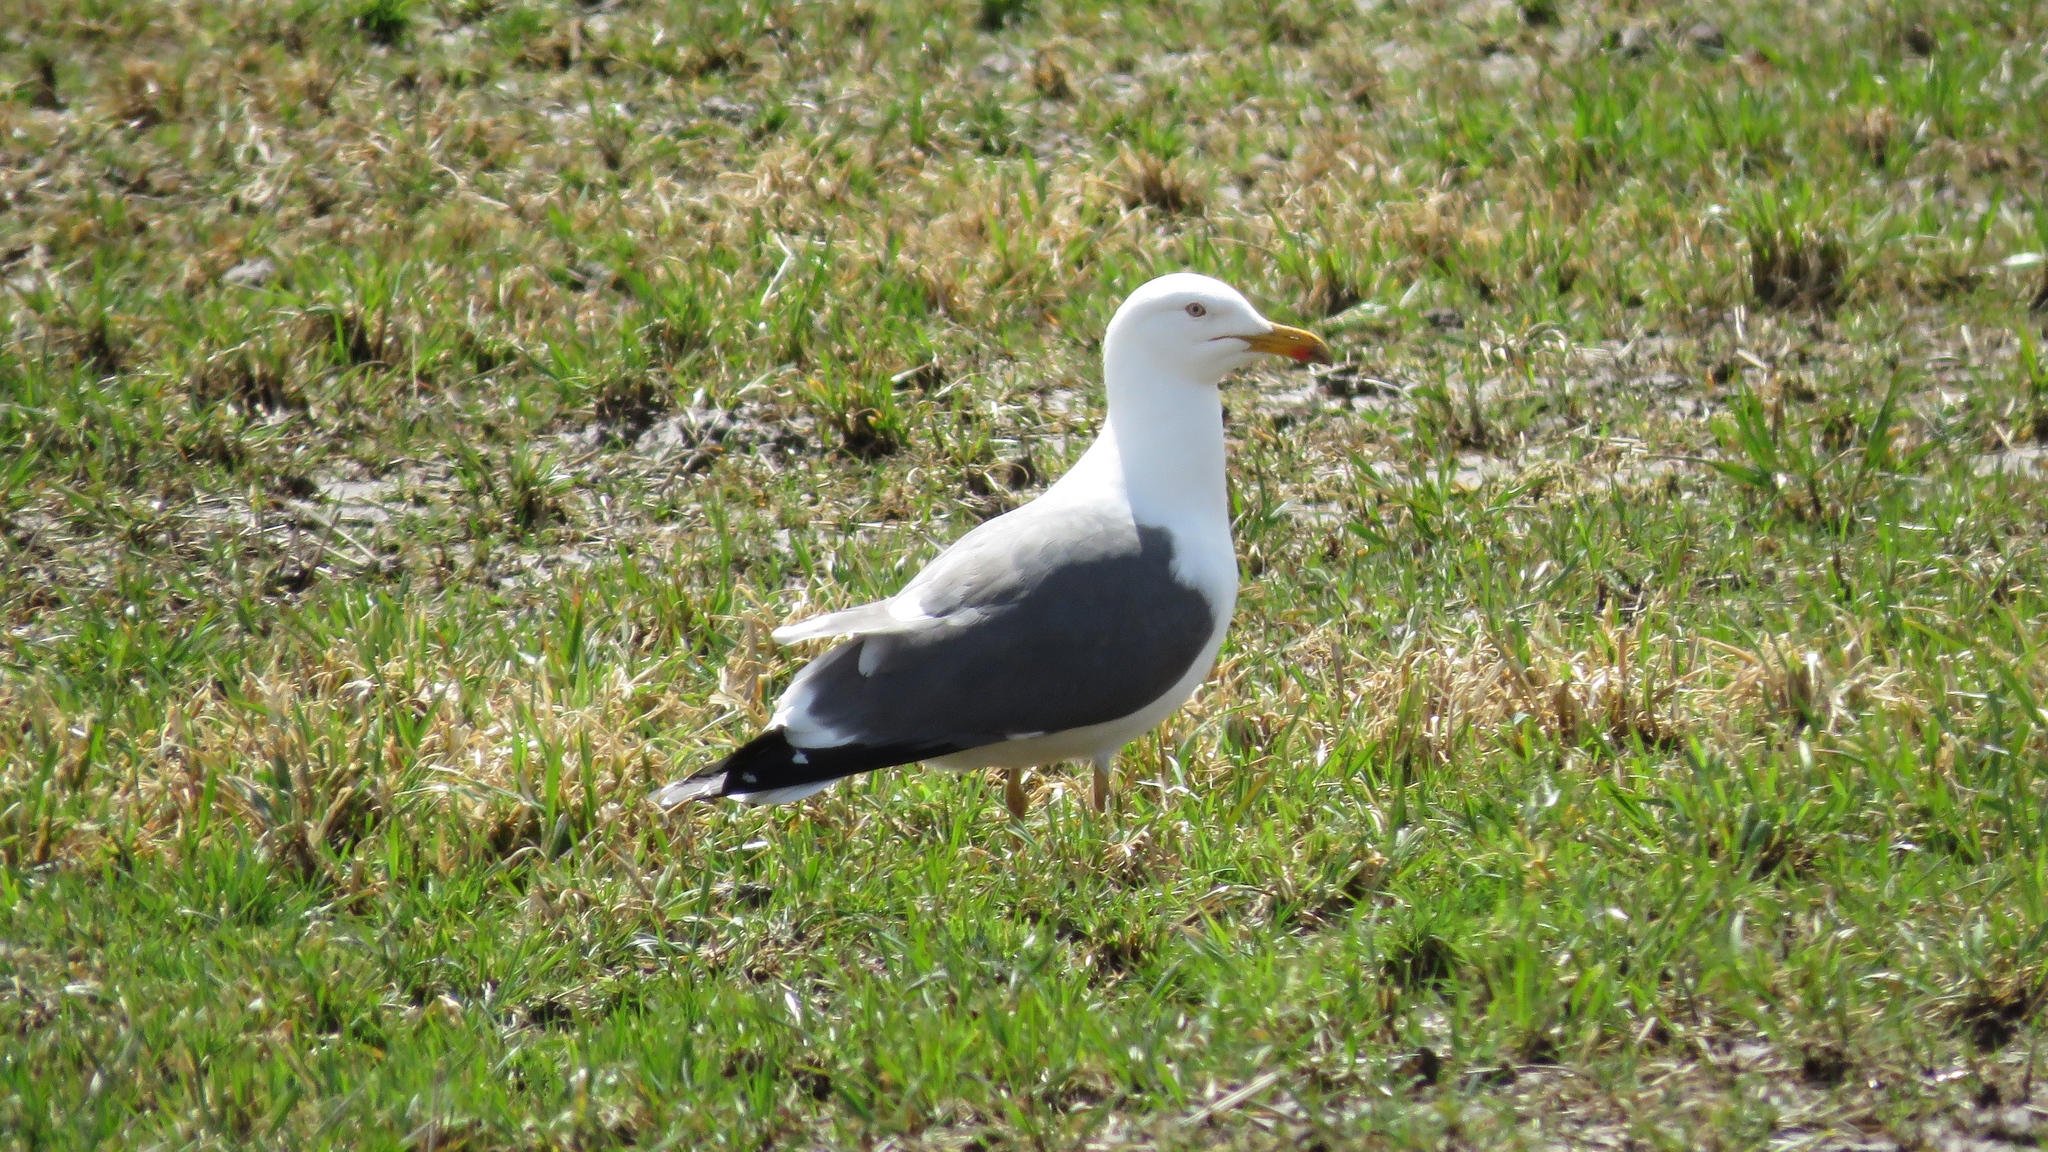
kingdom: Animalia
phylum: Chordata
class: Aves
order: Charadriiformes
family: Laridae
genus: Larus
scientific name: Larus fuscus
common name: Lesser black-backed gull
